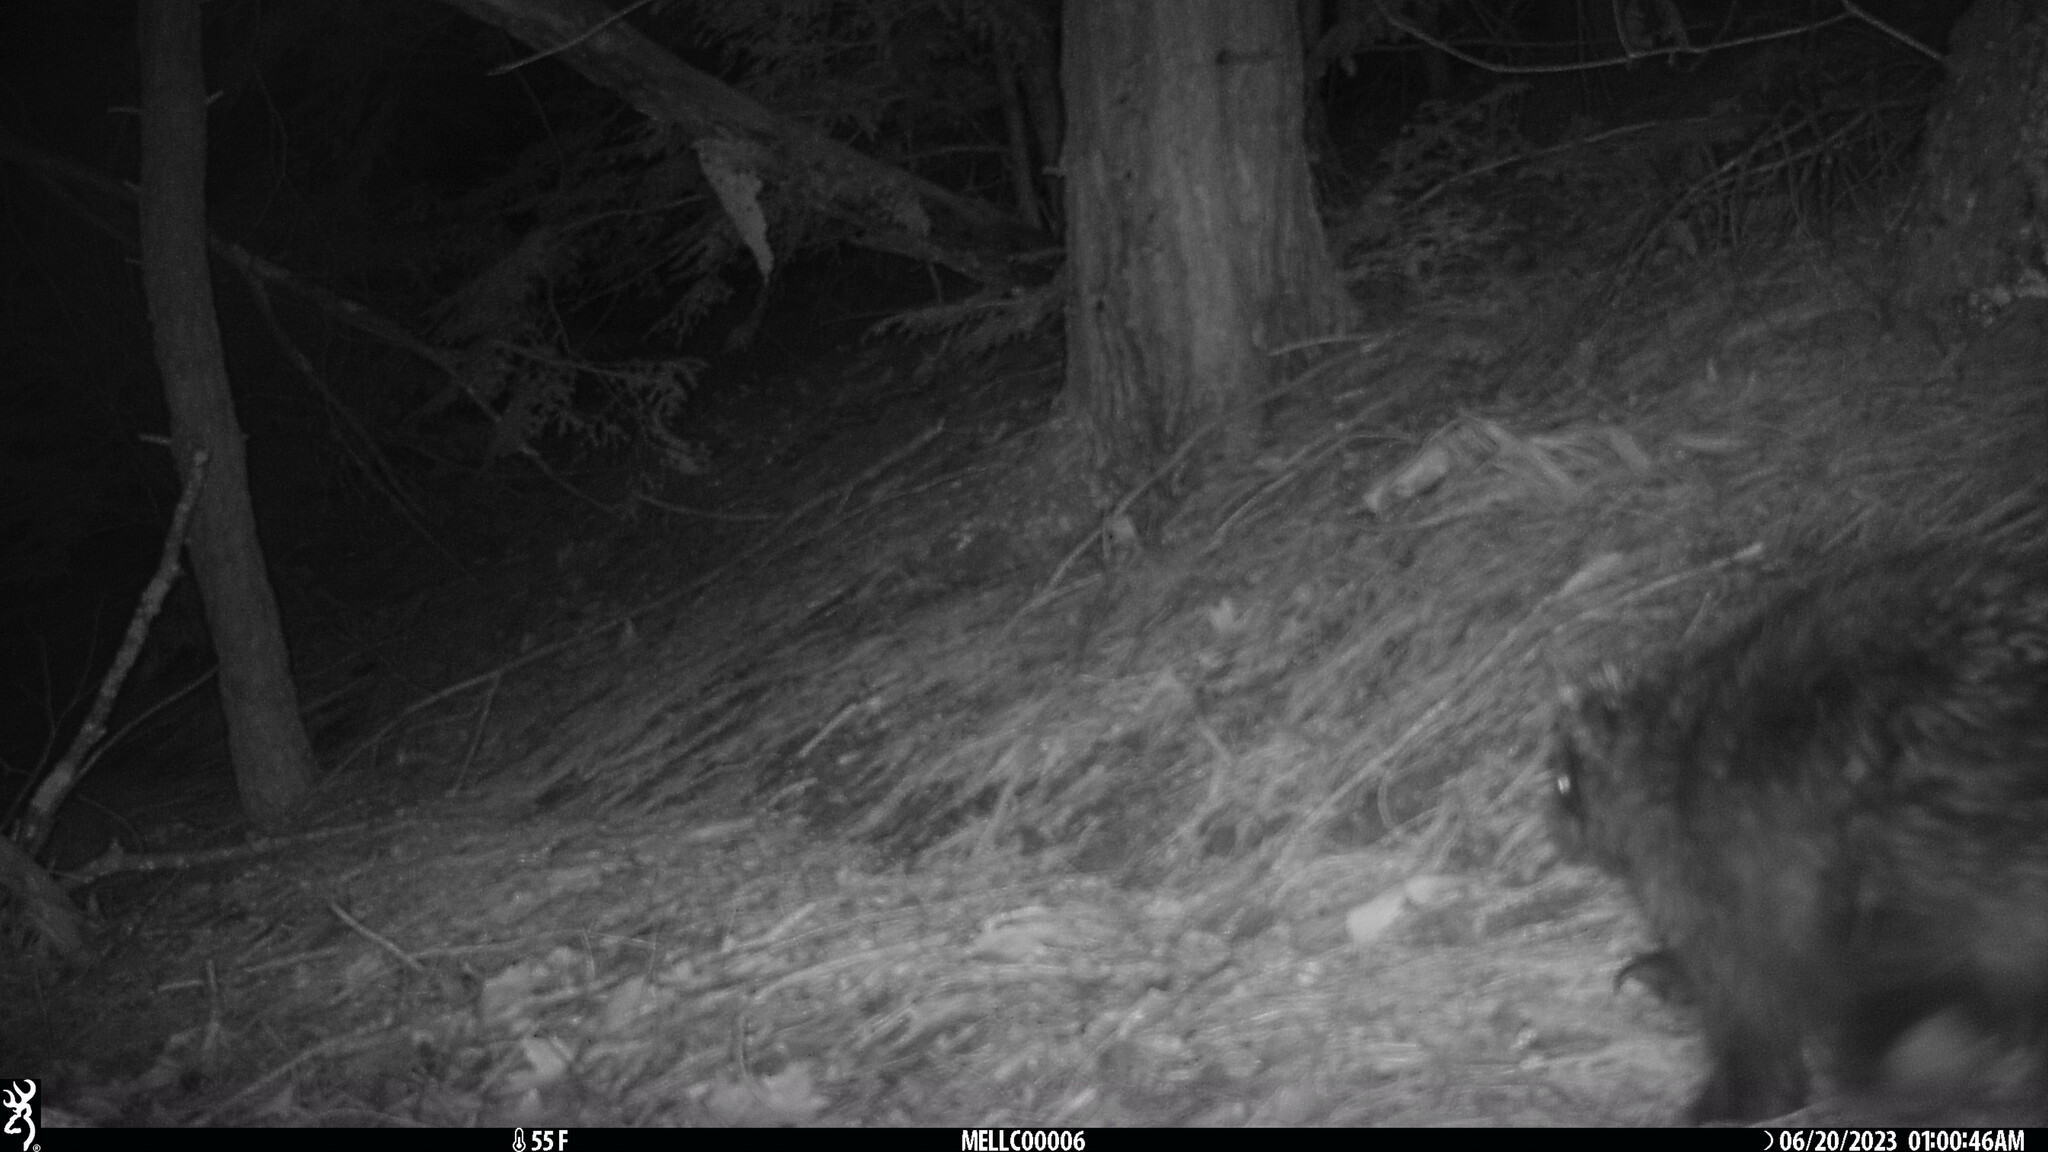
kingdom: Animalia
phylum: Chordata
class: Mammalia
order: Rodentia
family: Erethizontidae
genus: Erethizon
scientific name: Erethizon dorsatus
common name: North american porcupine
